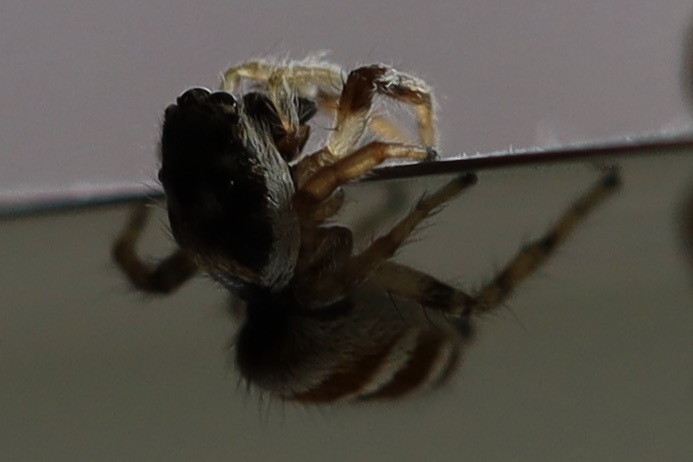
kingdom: Animalia
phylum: Arthropoda
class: Arachnida
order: Araneae
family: Salticidae
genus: Salticus
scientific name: Salticus scenicus
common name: Zebra jumper
